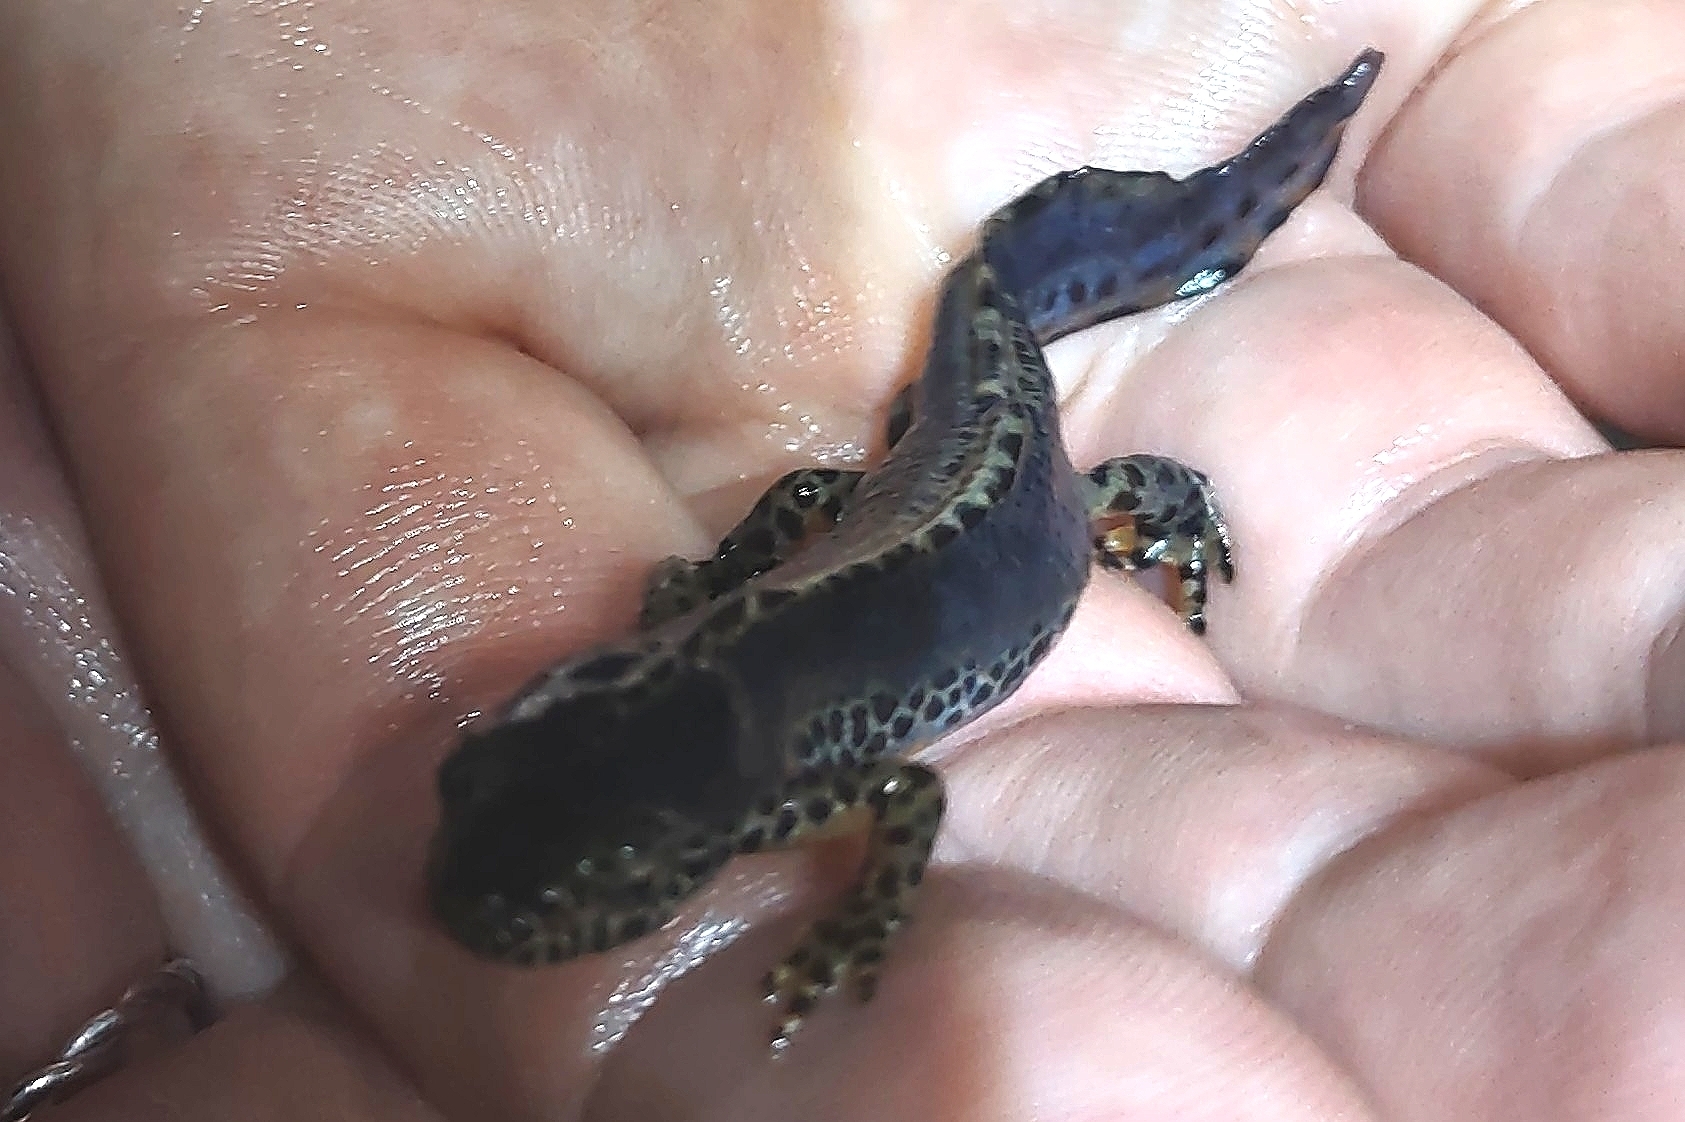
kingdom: Animalia
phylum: Chordata
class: Amphibia
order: Caudata
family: Salamandridae
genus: Ichthyosaura
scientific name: Ichthyosaura alpestris
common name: Alpine newt
